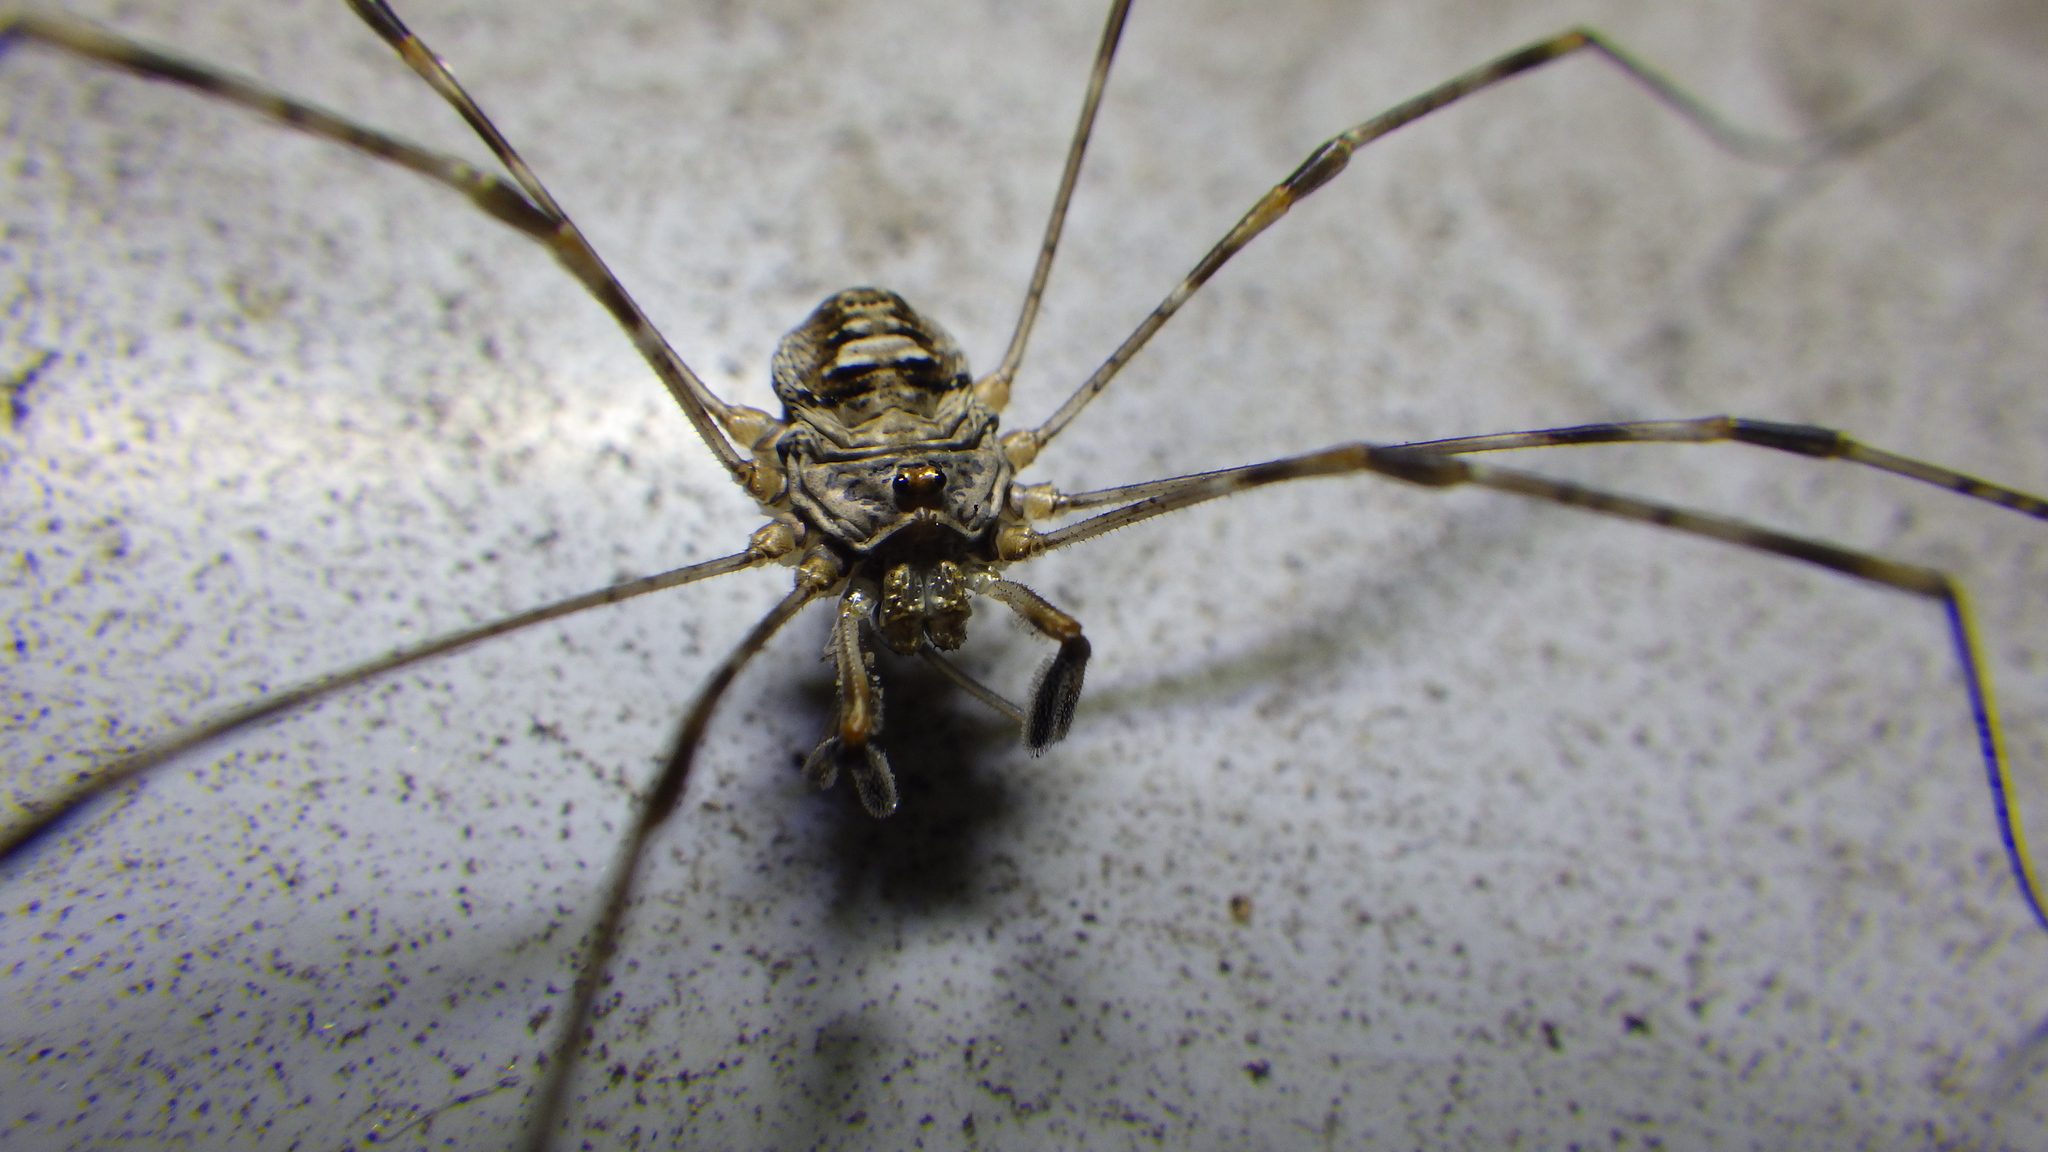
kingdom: Animalia
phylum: Arthropoda
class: Arachnida
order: Opiliones
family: Phalangiidae
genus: Dicranopalpus
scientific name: Dicranopalpus ramosus
